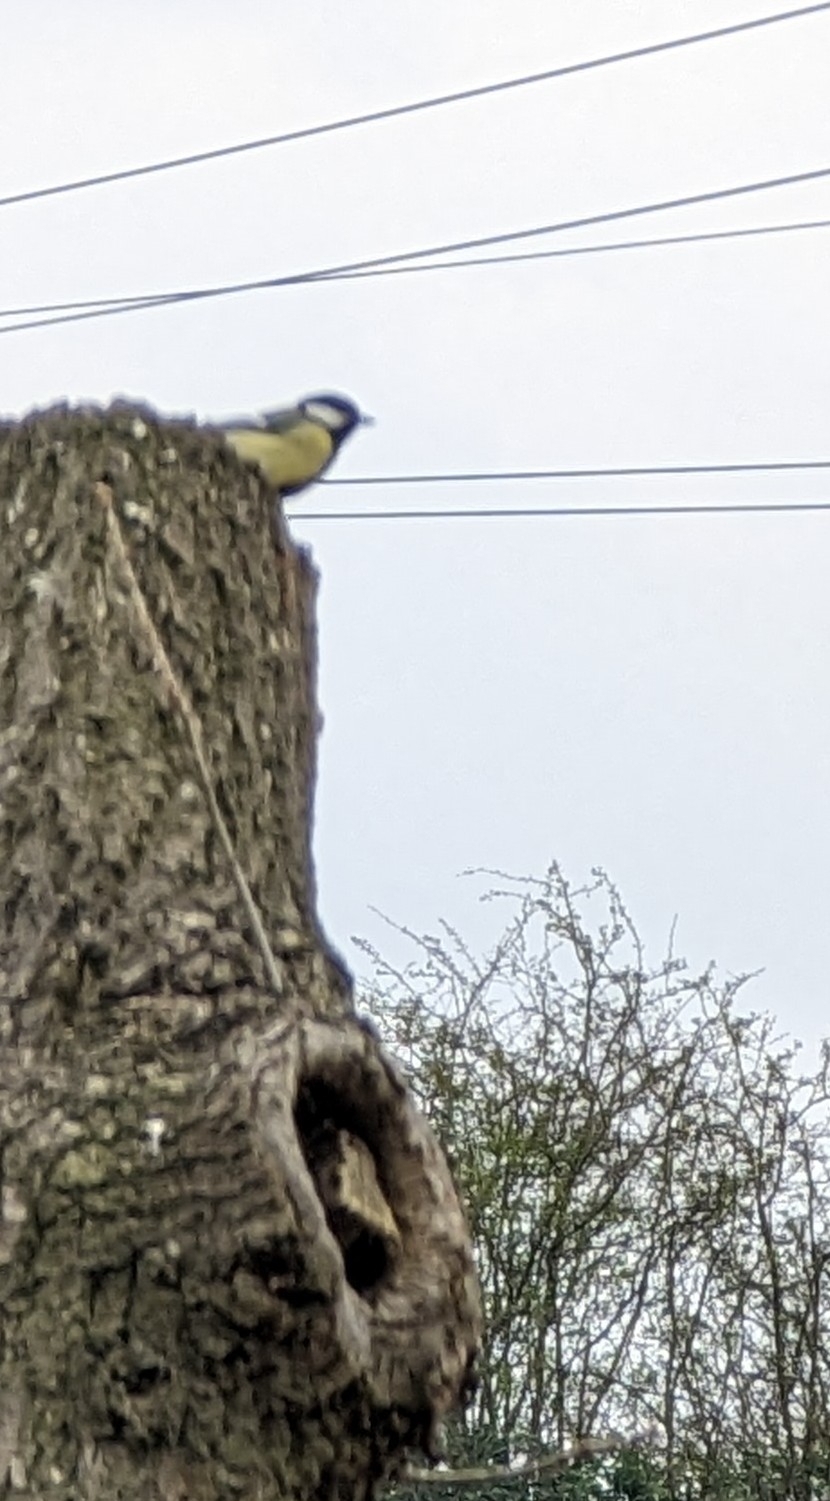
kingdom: Animalia
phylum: Chordata
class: Aves
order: Passeriformes
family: Paridae
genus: Parus
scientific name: Parus major
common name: Great tit
